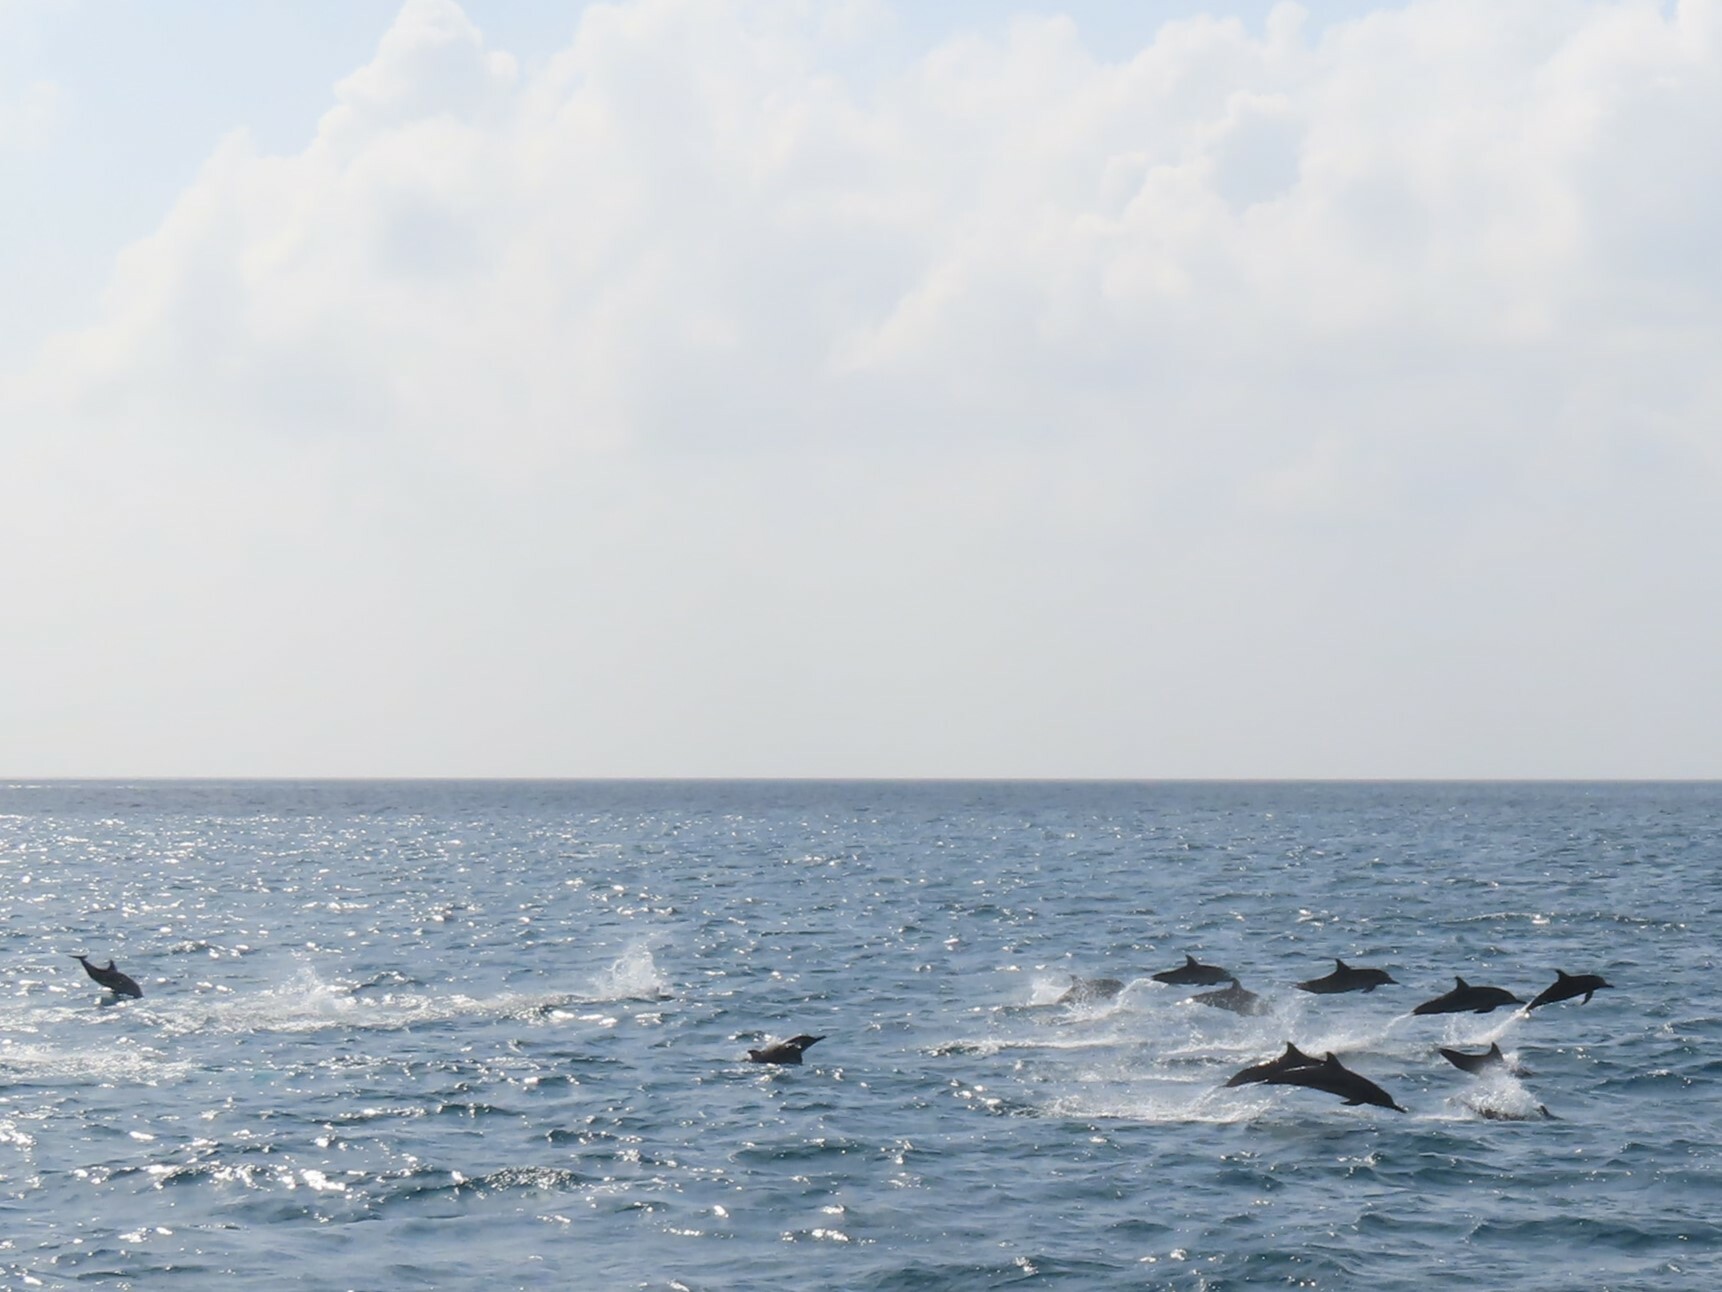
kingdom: Animalia
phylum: Chordata
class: Mammalia
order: Cetacea
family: Delphinidae
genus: Stenella
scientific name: Stenella longirostris
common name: Spinner dolphin
